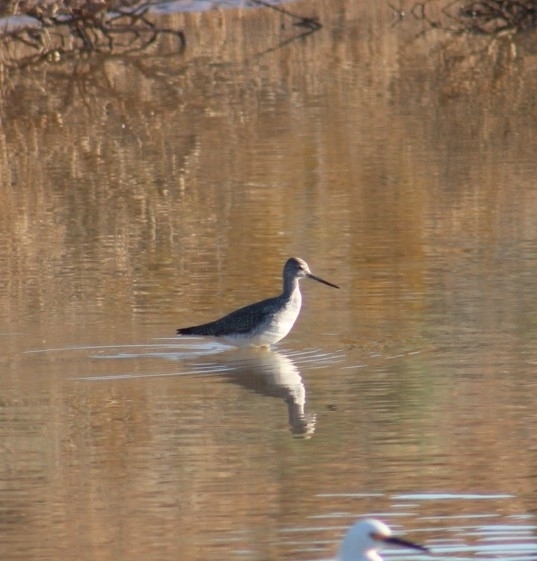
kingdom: Animalia
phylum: Chordata
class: Aves
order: Charadriiformes
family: Scolopacidae
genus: Tringa
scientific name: Tringa melanoleuca
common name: Greater yellowlegs
